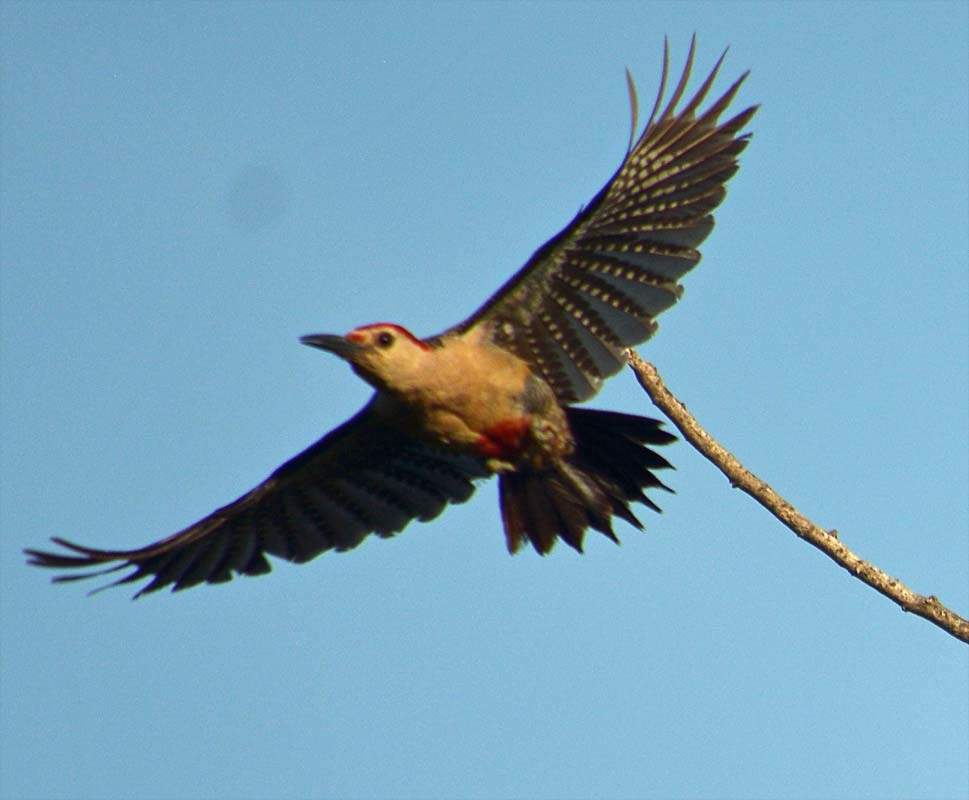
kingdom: Animalia
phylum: Chordata
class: Aves
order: Piciformes
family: Picidae
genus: Melanerpes
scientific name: Melanerpes aurifrons
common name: Golden-fronted woodpecker
